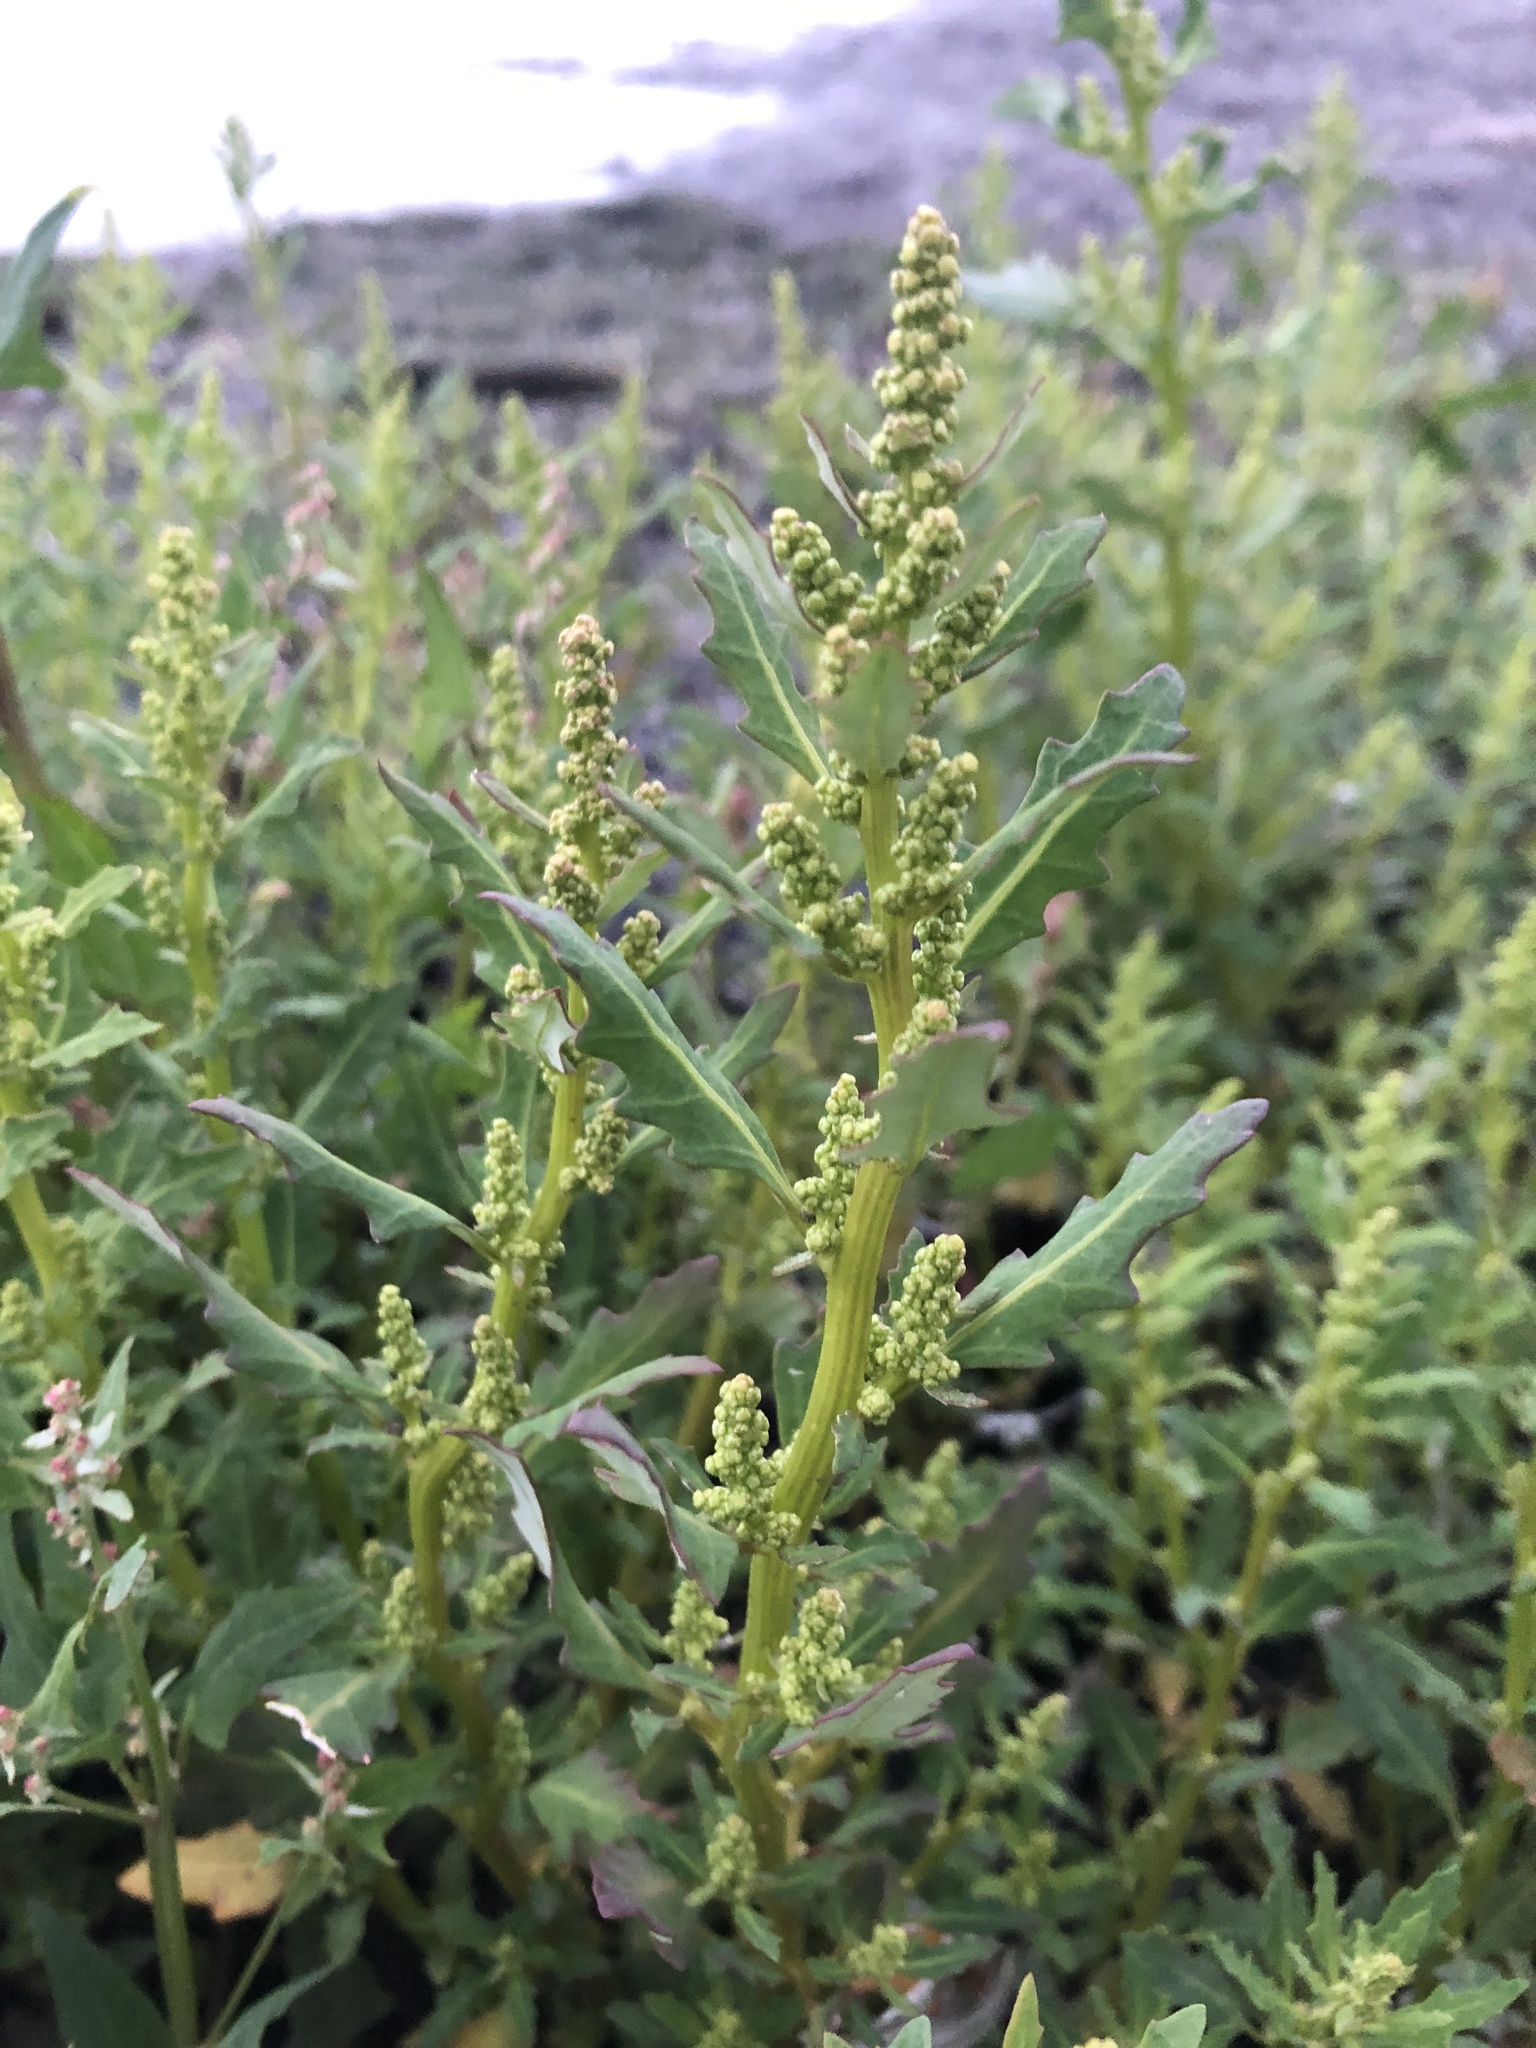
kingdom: Plantae
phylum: Tracheophyta
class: Magnoliopsida
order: Caryophyllales
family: Amaranthaceae
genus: Oxybasis
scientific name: Oxybasis glauca
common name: Glaucous goosefoot
